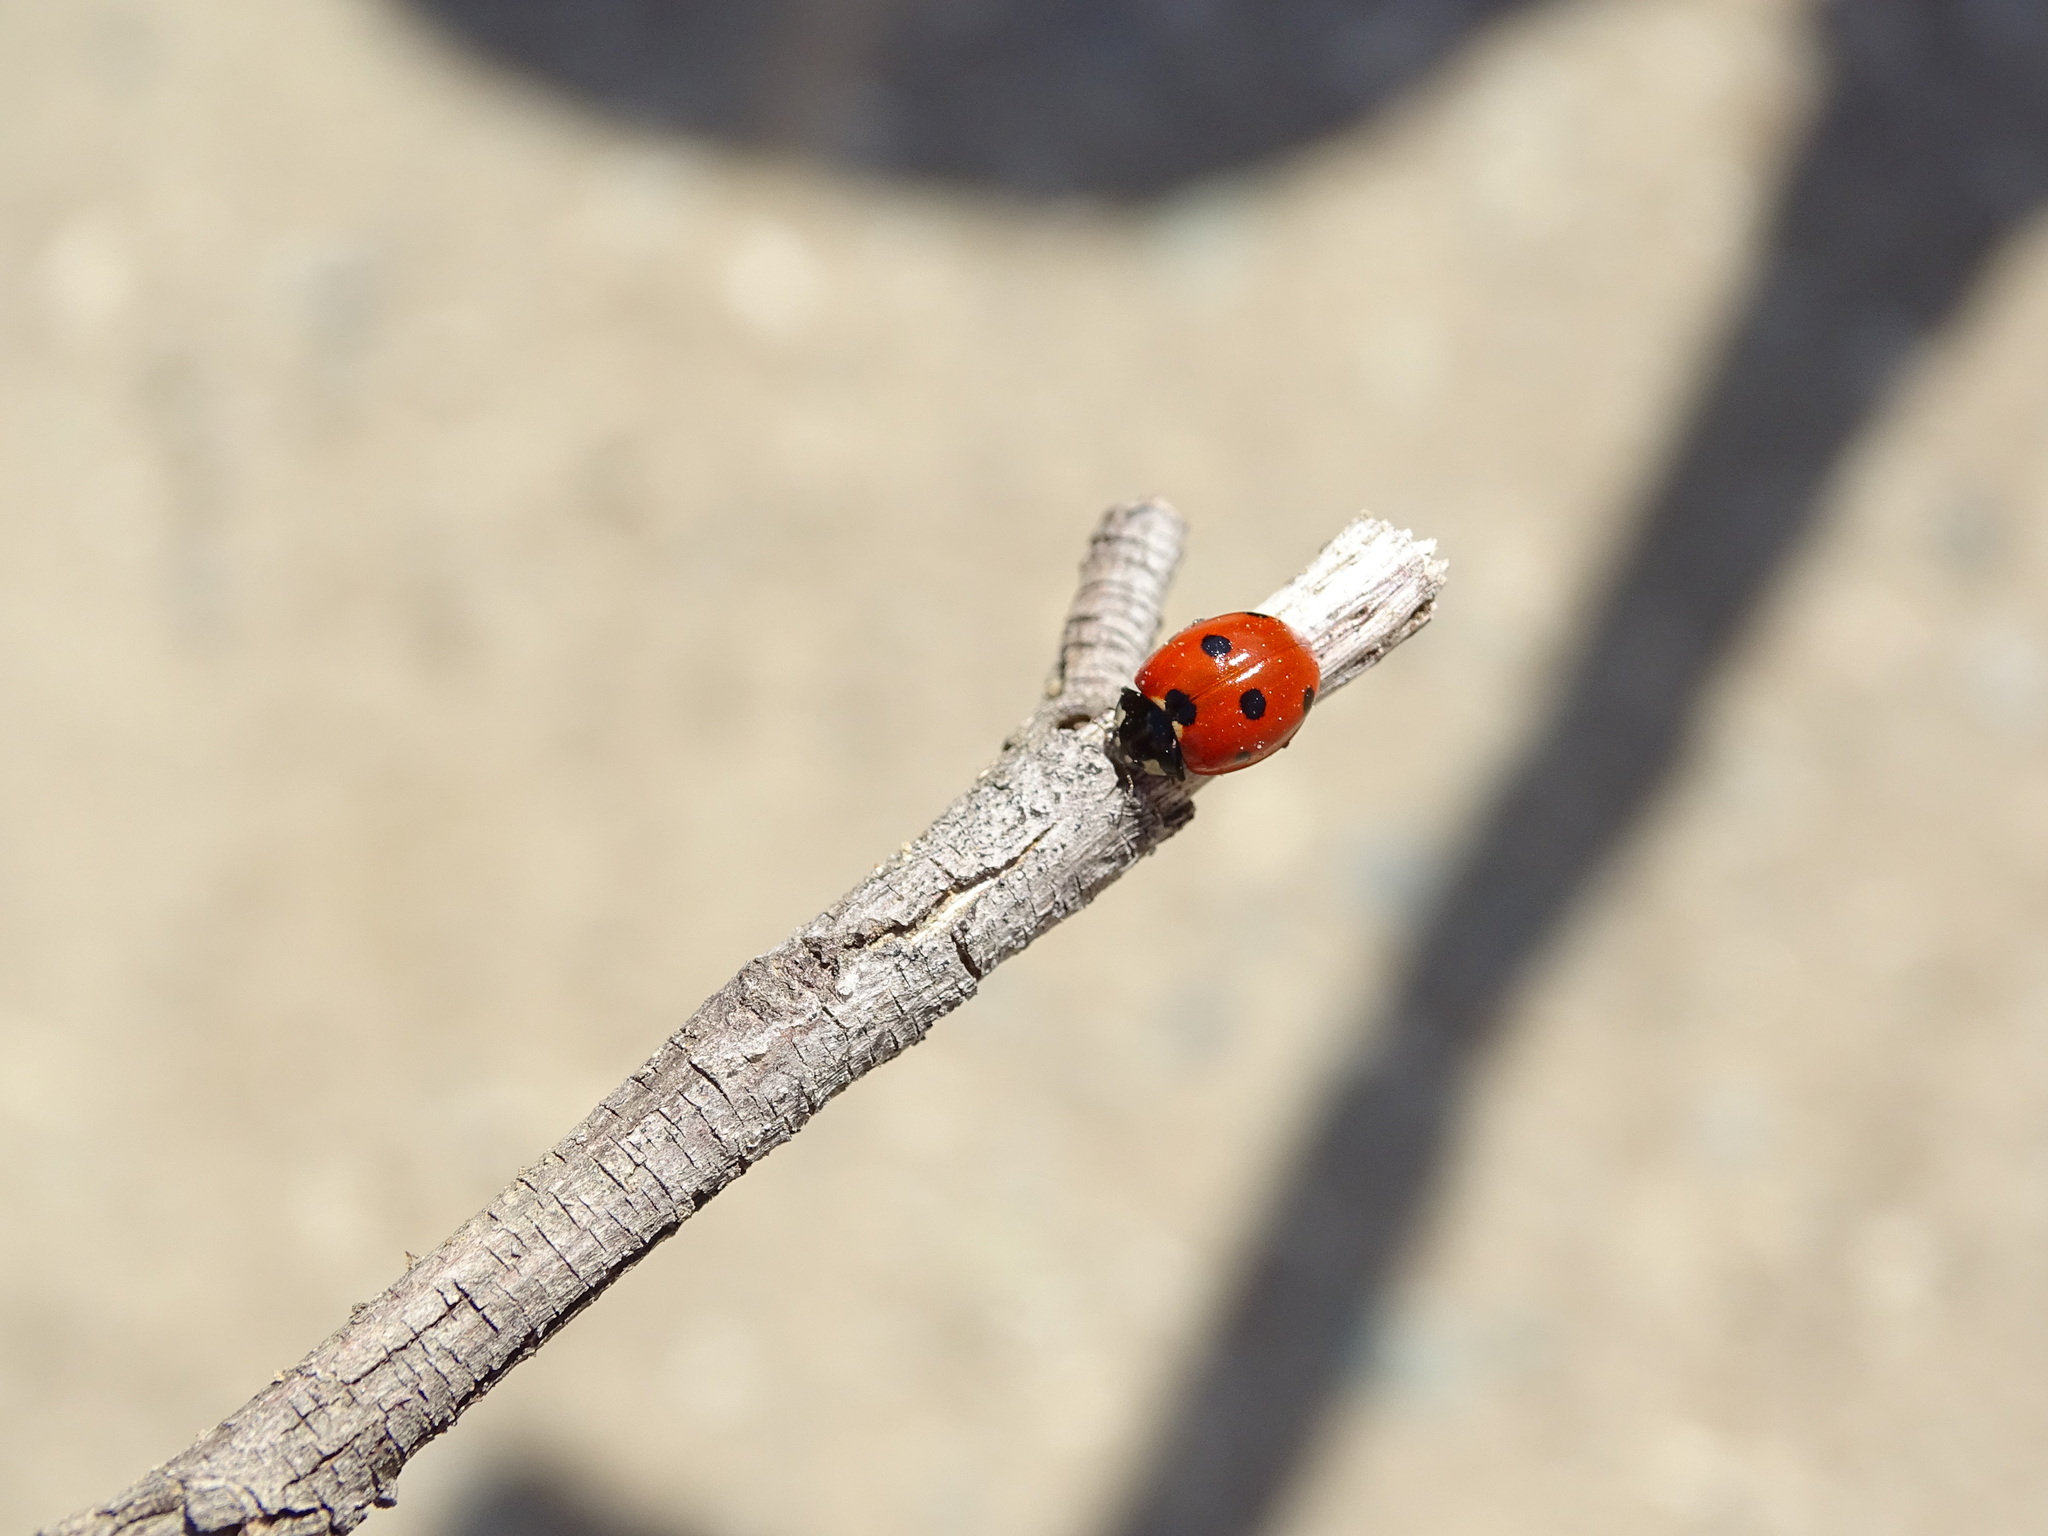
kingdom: Animalia
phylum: Arthropoda
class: Insecta
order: Coleoptera
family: Coccinellidae
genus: Coccinella
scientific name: Coccinella septempunctata
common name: Sevenspotted lady beetle
